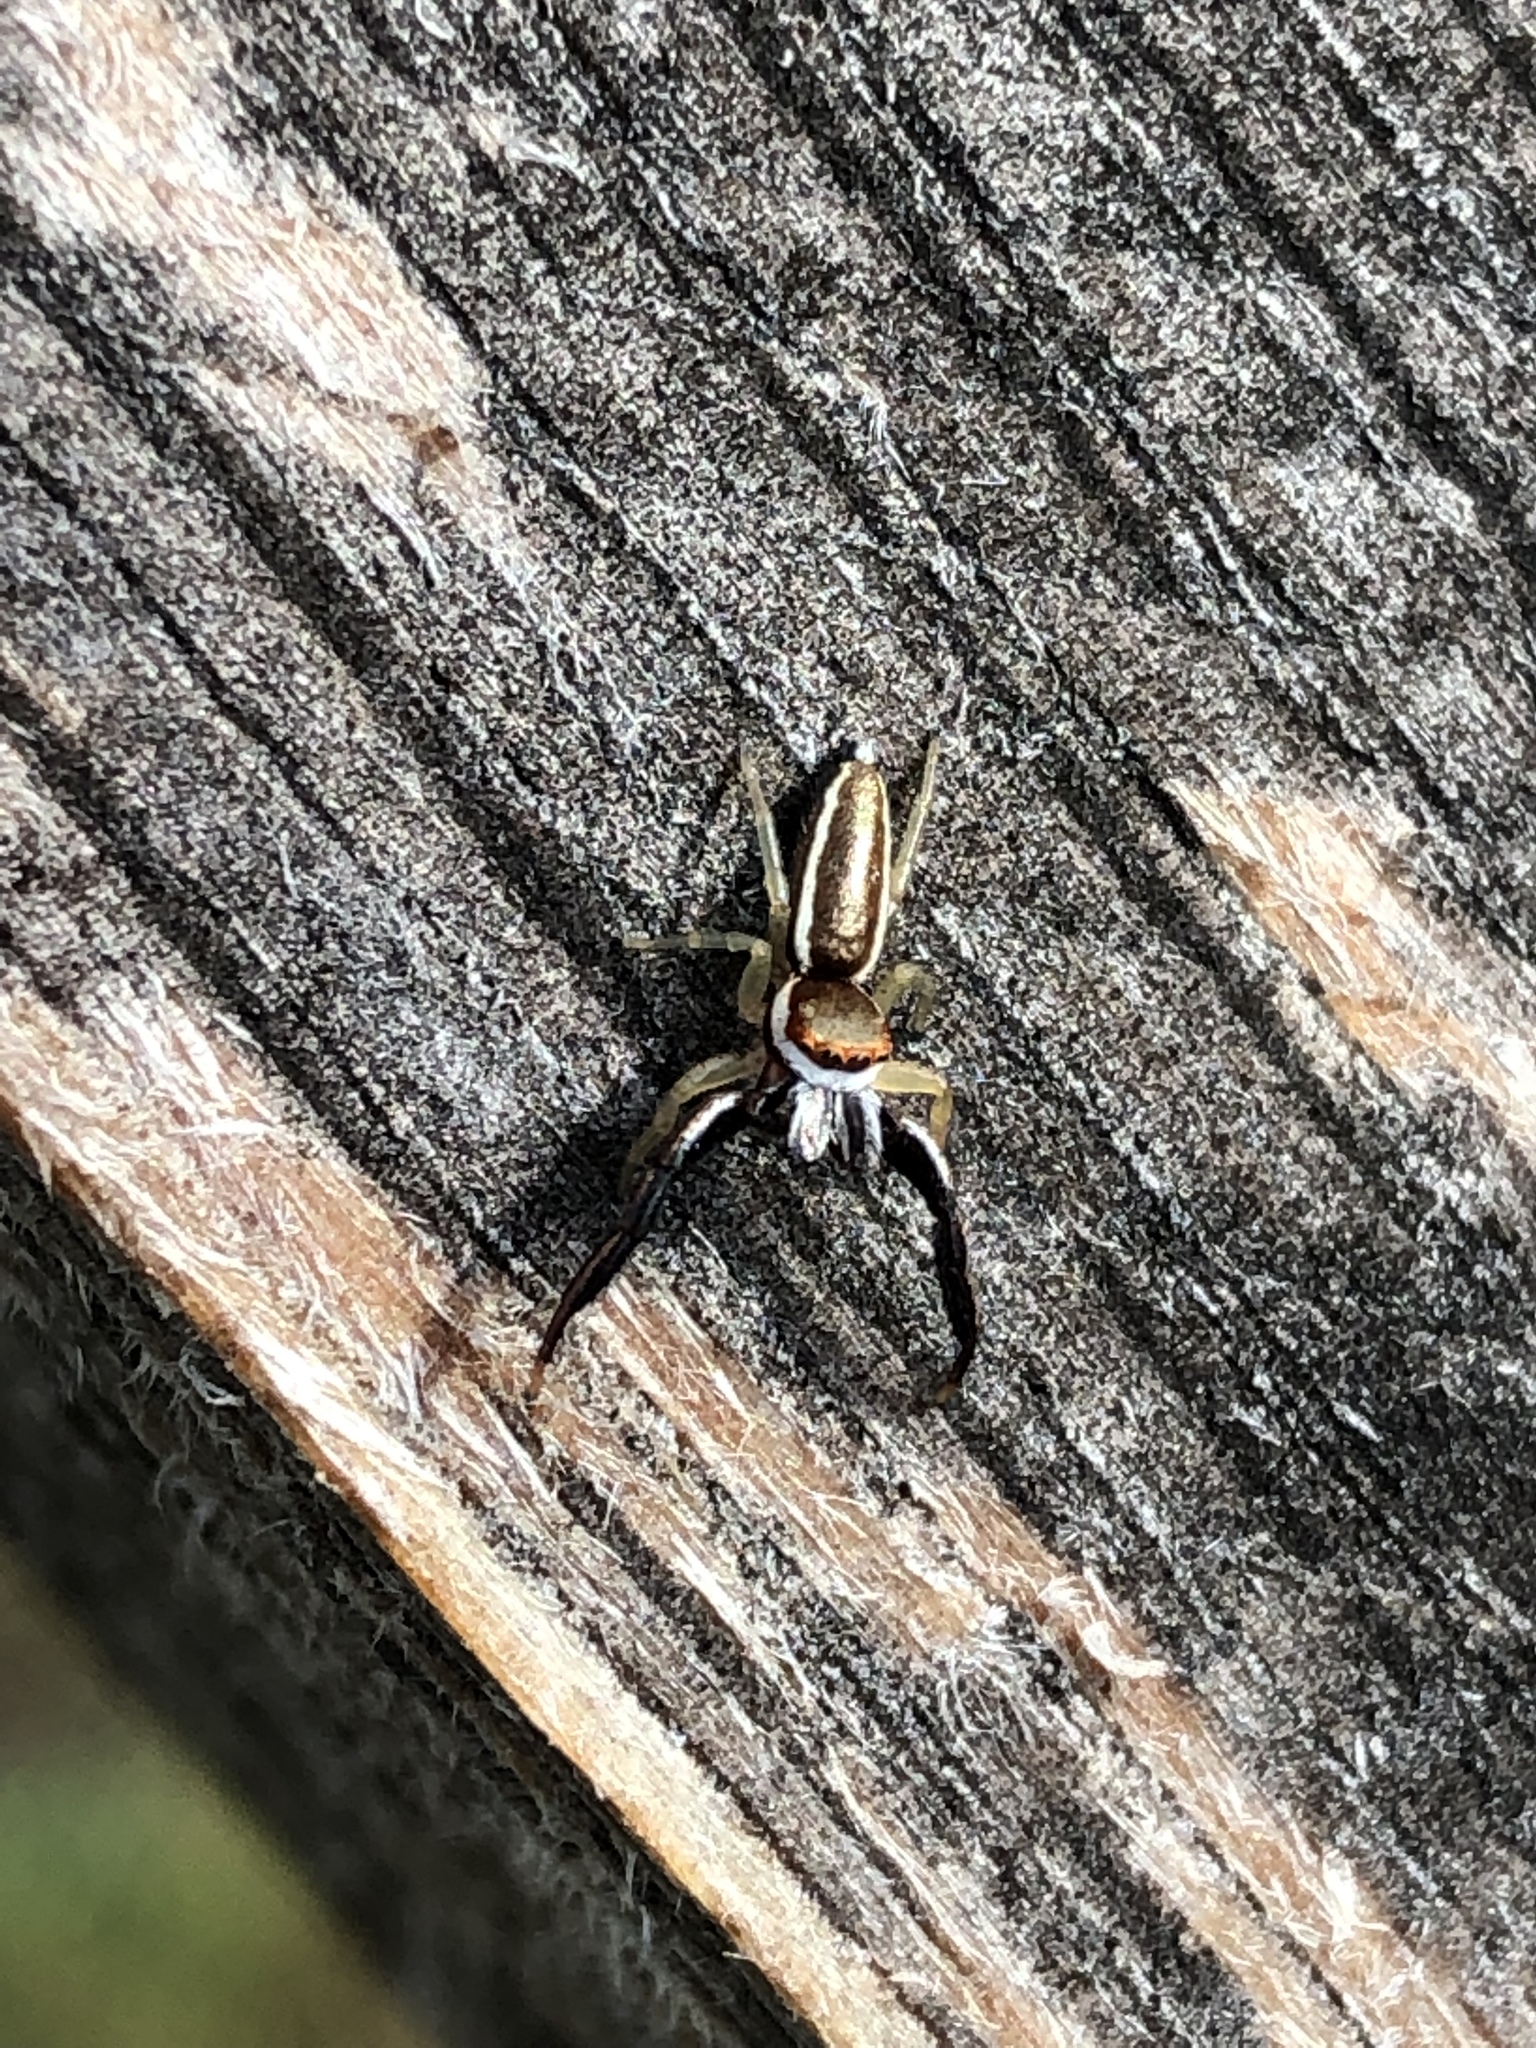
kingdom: Animalia
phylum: Arthropoda
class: Arachnida
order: Araneae
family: Salticidae
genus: Hentzia
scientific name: Hentzia palmarum
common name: Common hentz jumping spider
